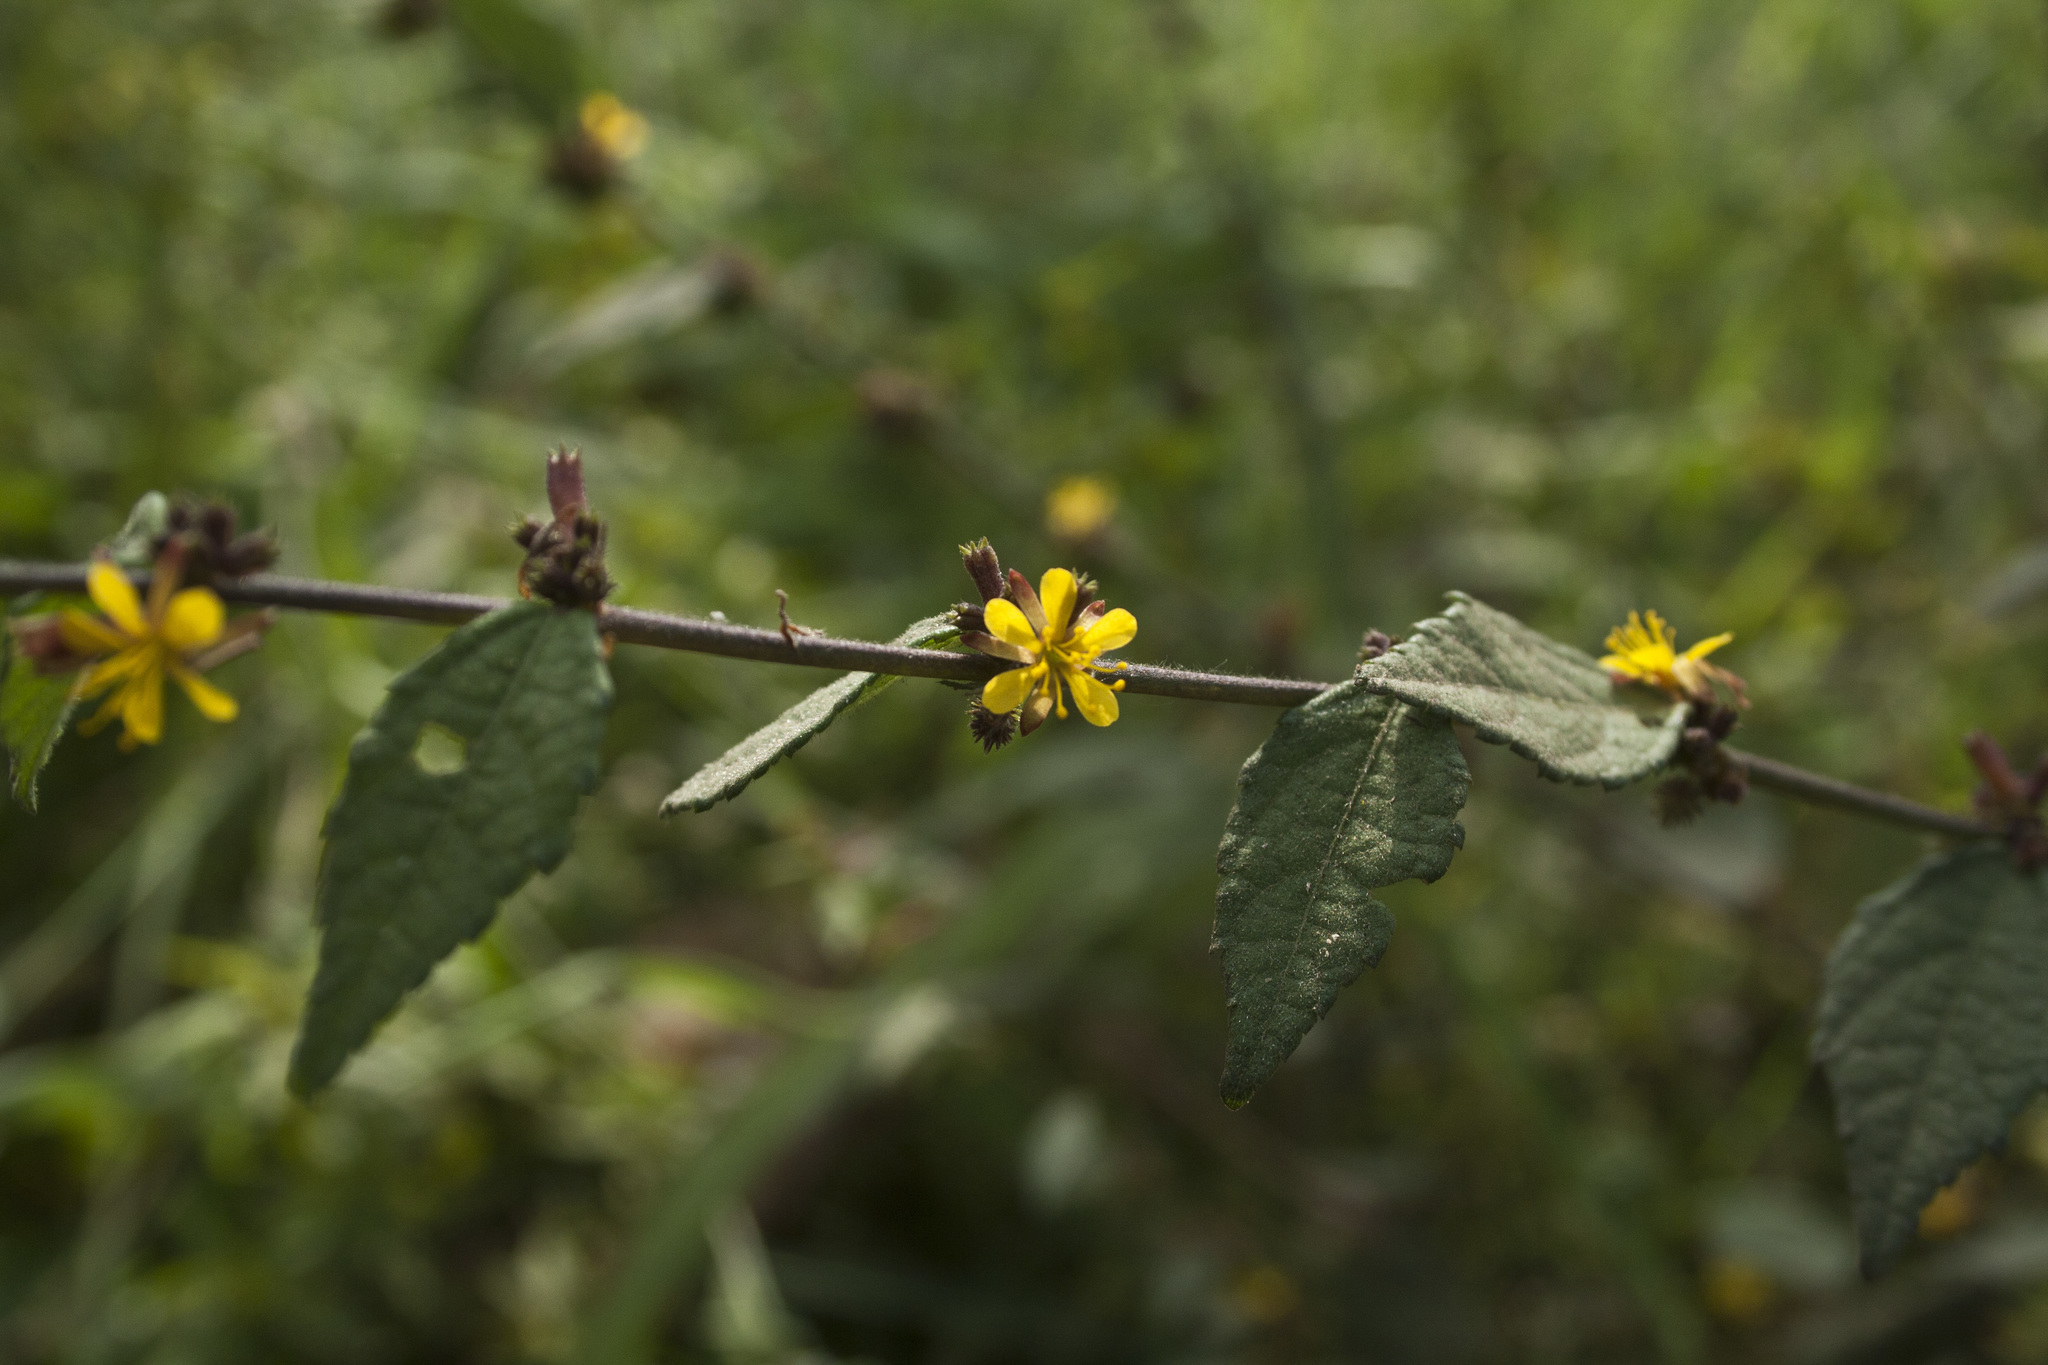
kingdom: Plantae
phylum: Tracheophyta
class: Magnoliopsida
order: Malvales
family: Malvaceae
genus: Triumfetta
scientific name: Triumfetta rhomboidea
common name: Diamond burbark
